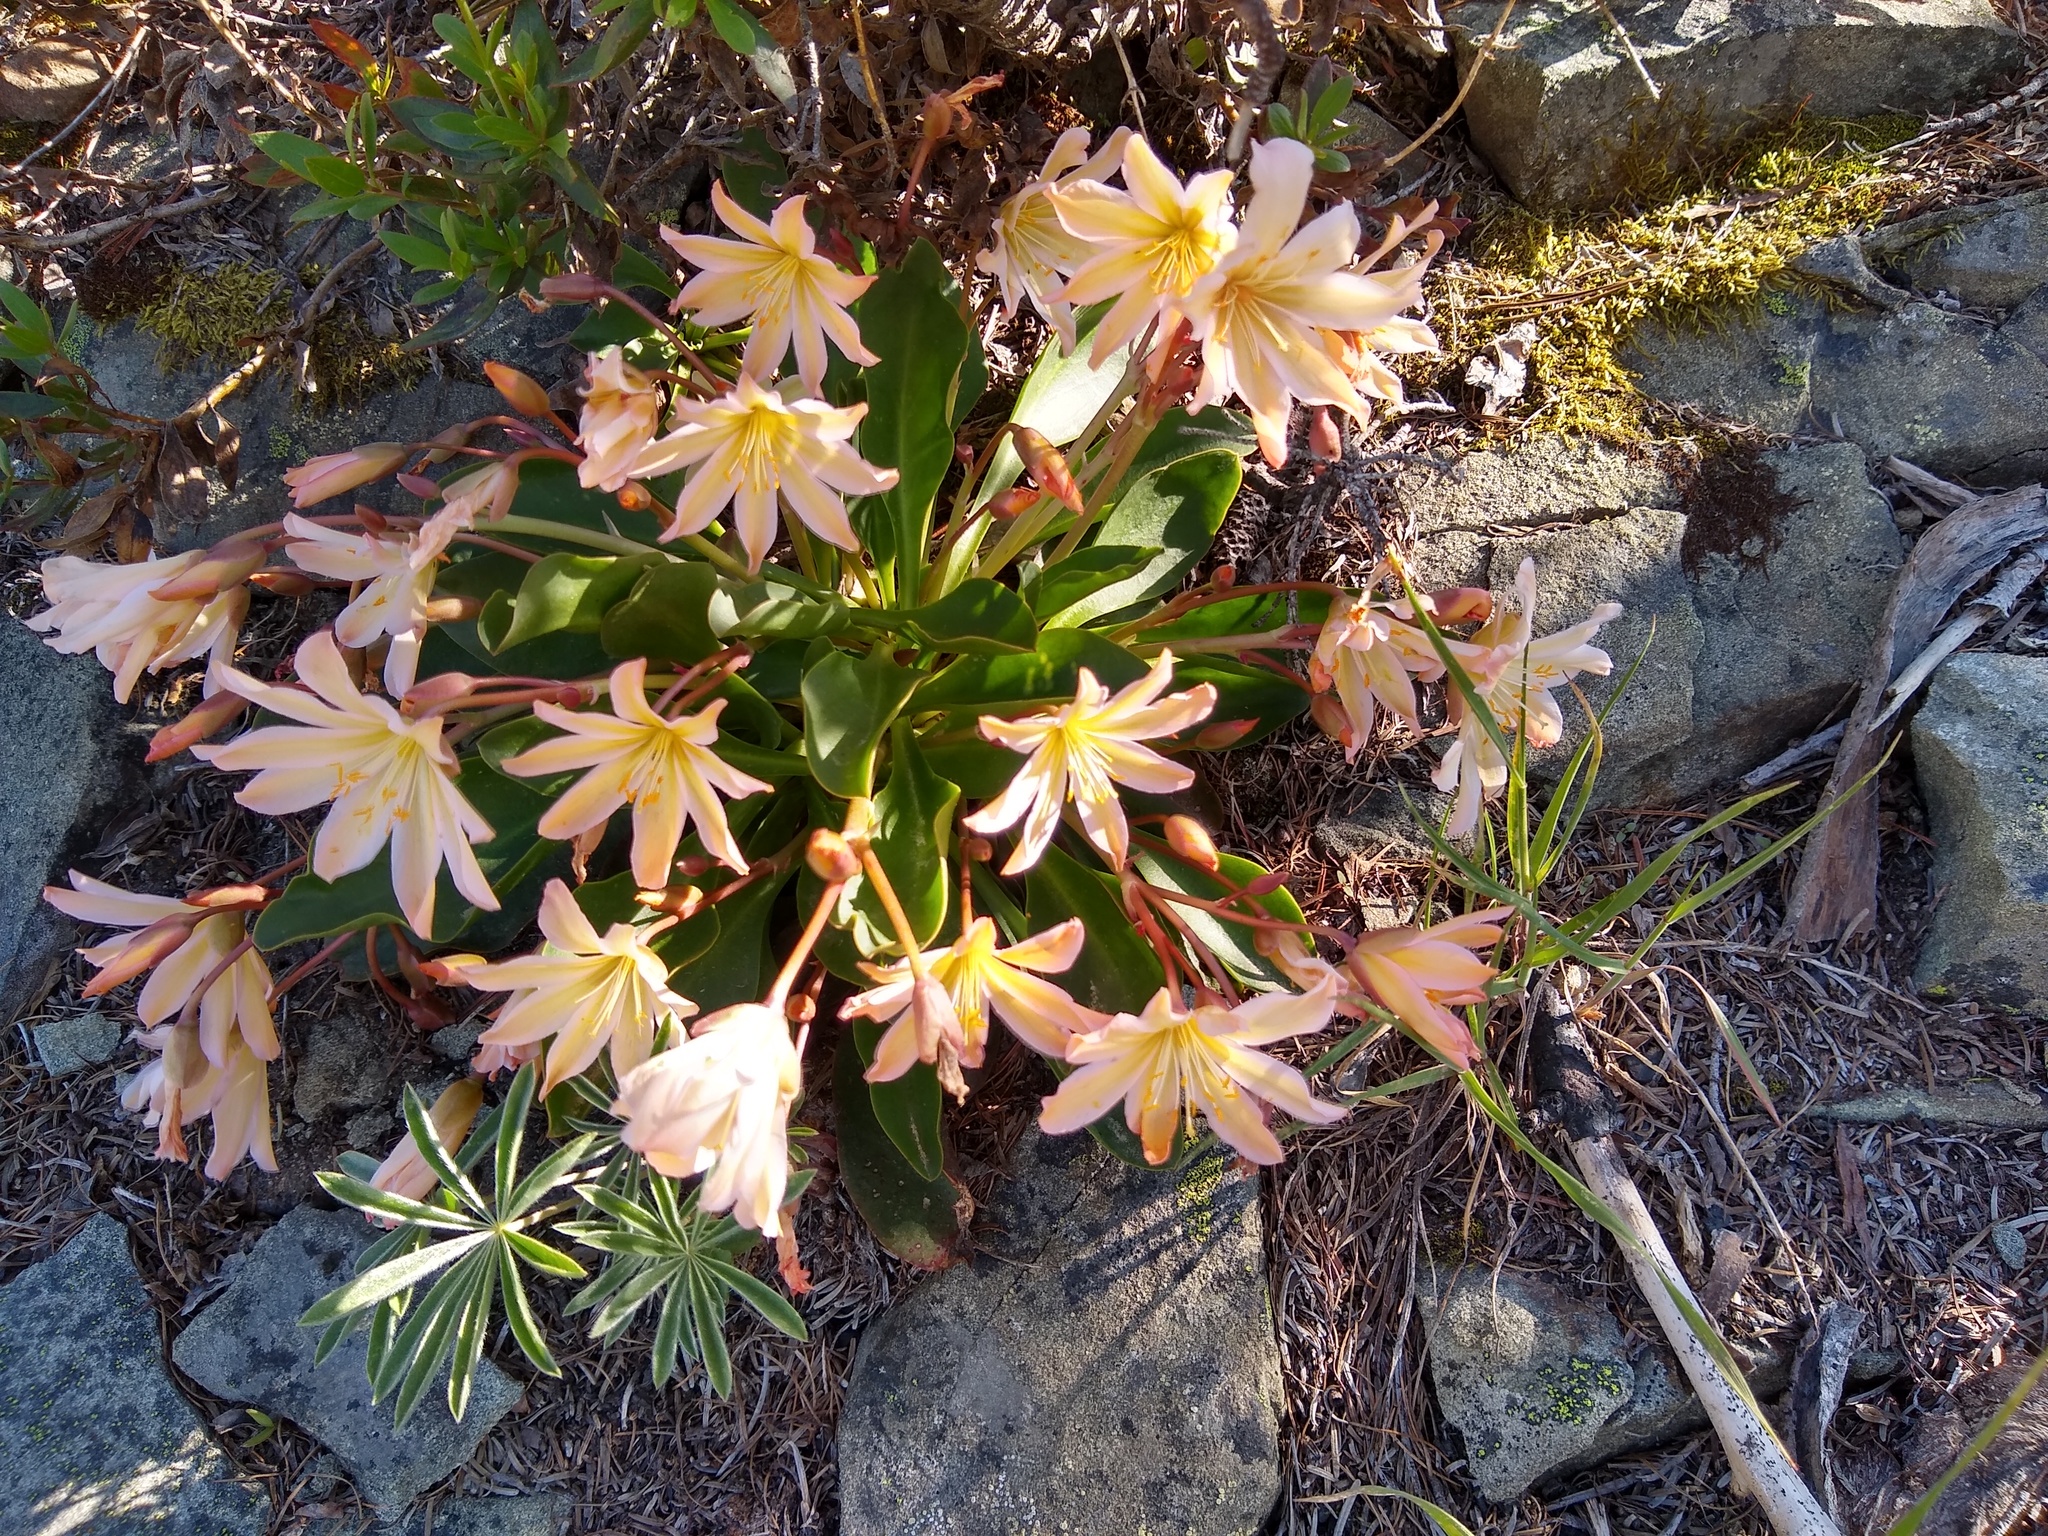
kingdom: Plantae
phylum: Tracheophyta
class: Magnoliopsida
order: Caryophyllales
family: Montiaceae
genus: Lewisiopsis
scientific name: Lewisiopsis tweedyi
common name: Tweedy's pussypaws
